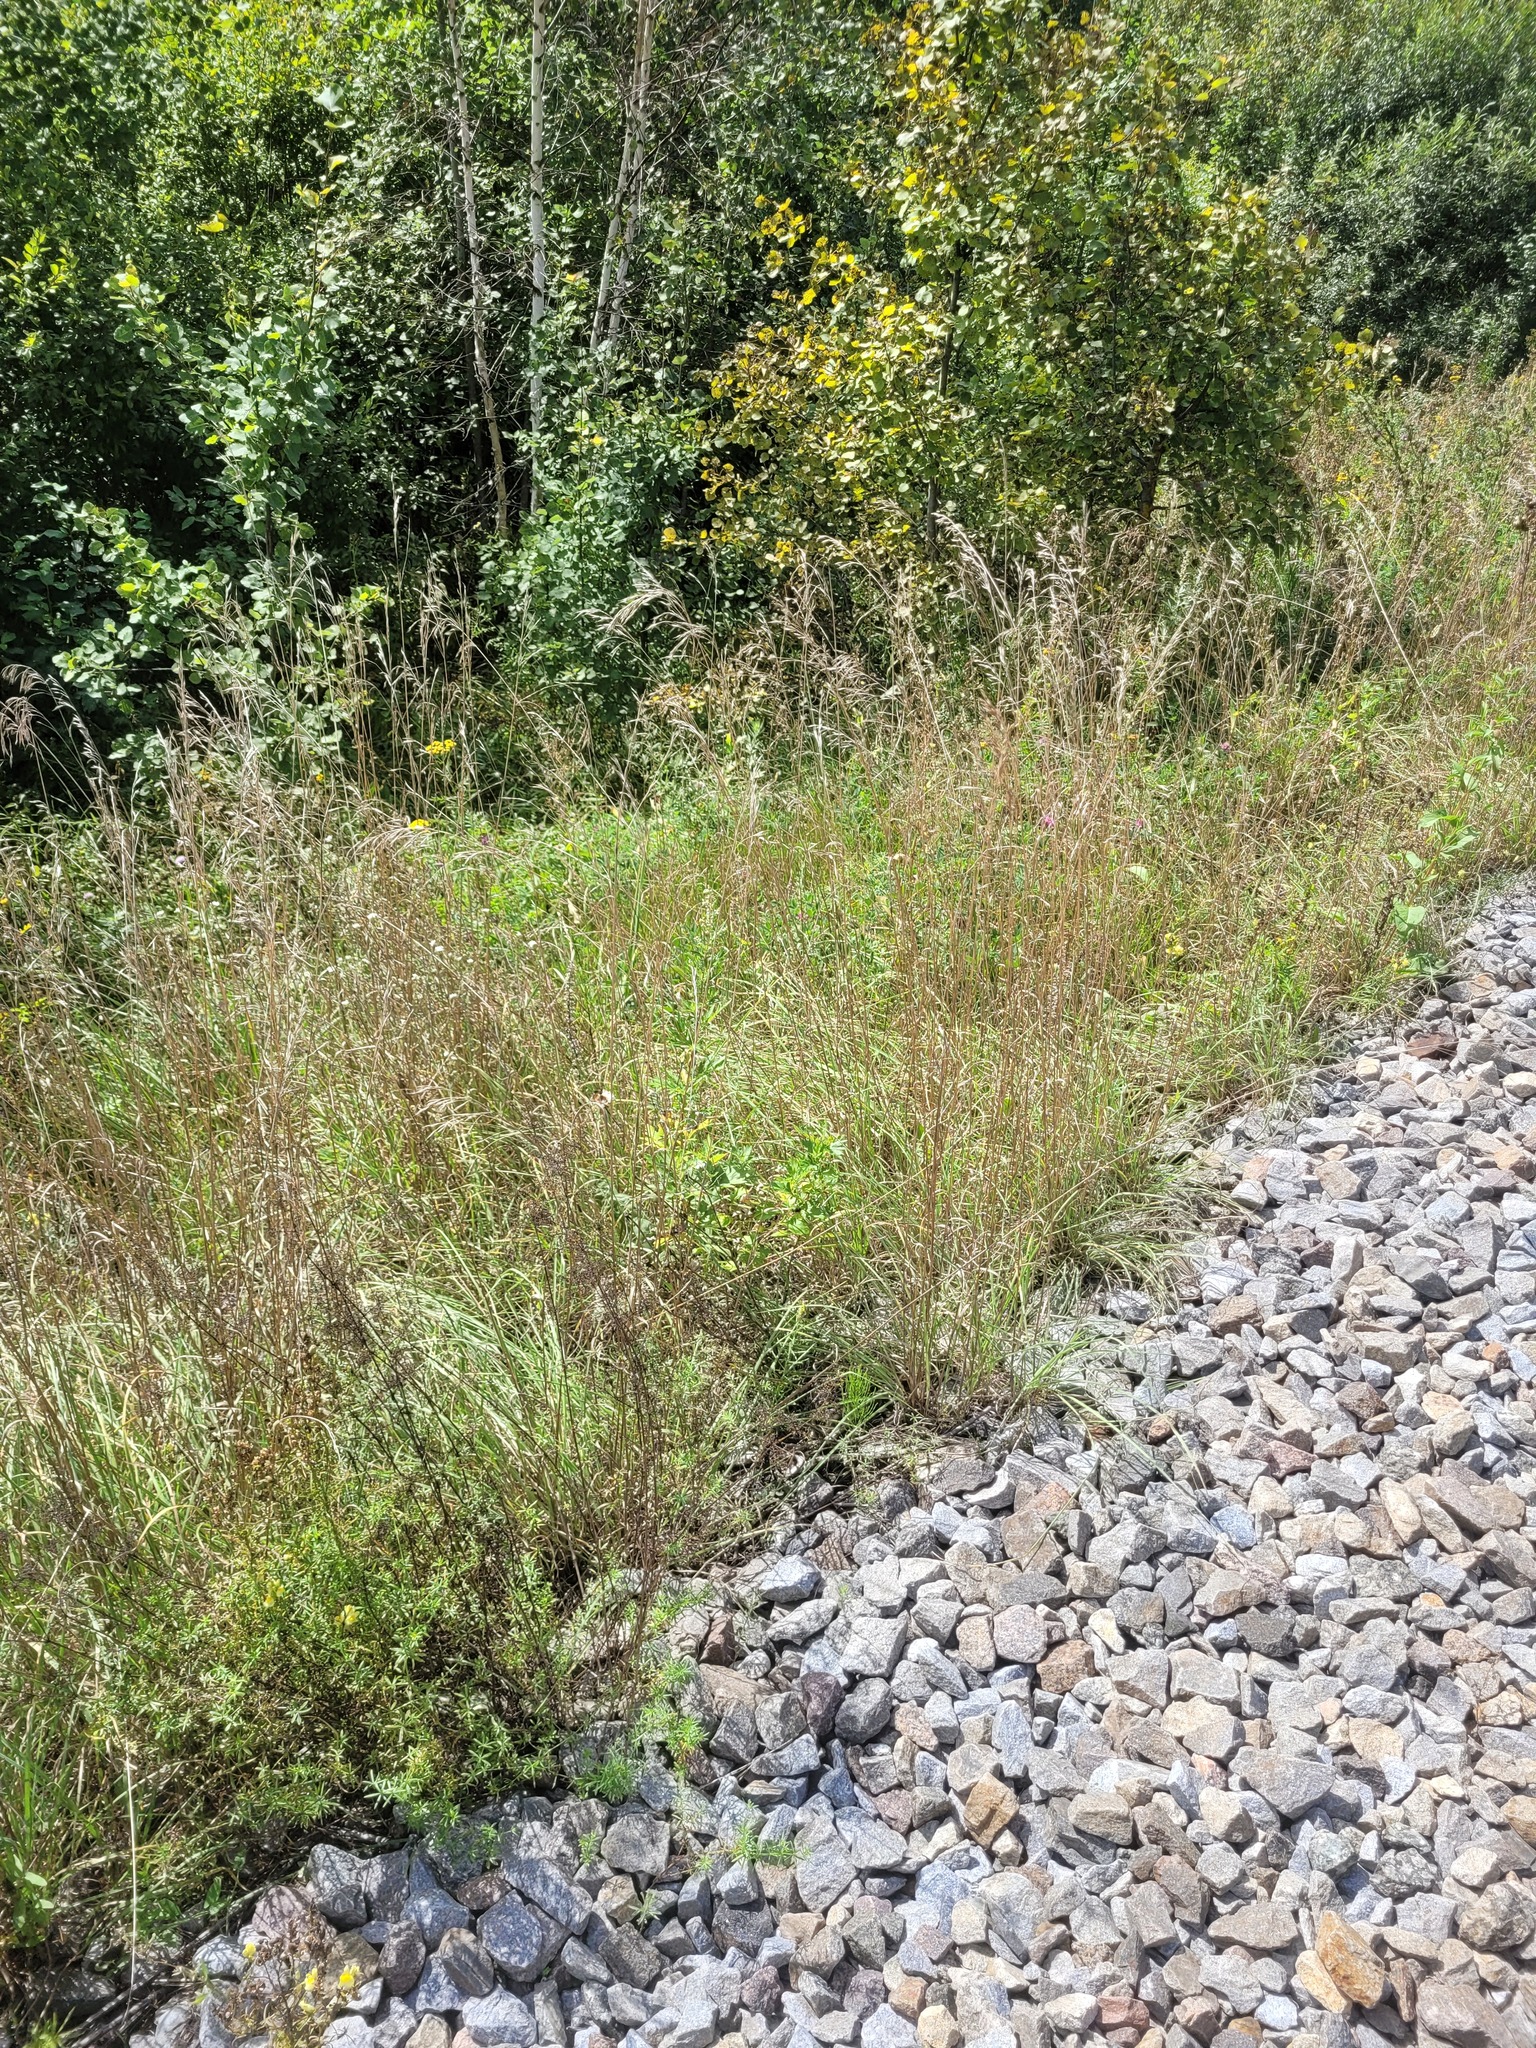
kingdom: Plantae
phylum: Tracheophyta
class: Liliopsida
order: Poales
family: Poaceae
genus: Bromus
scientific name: Bromus riparius
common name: Meadow brome
